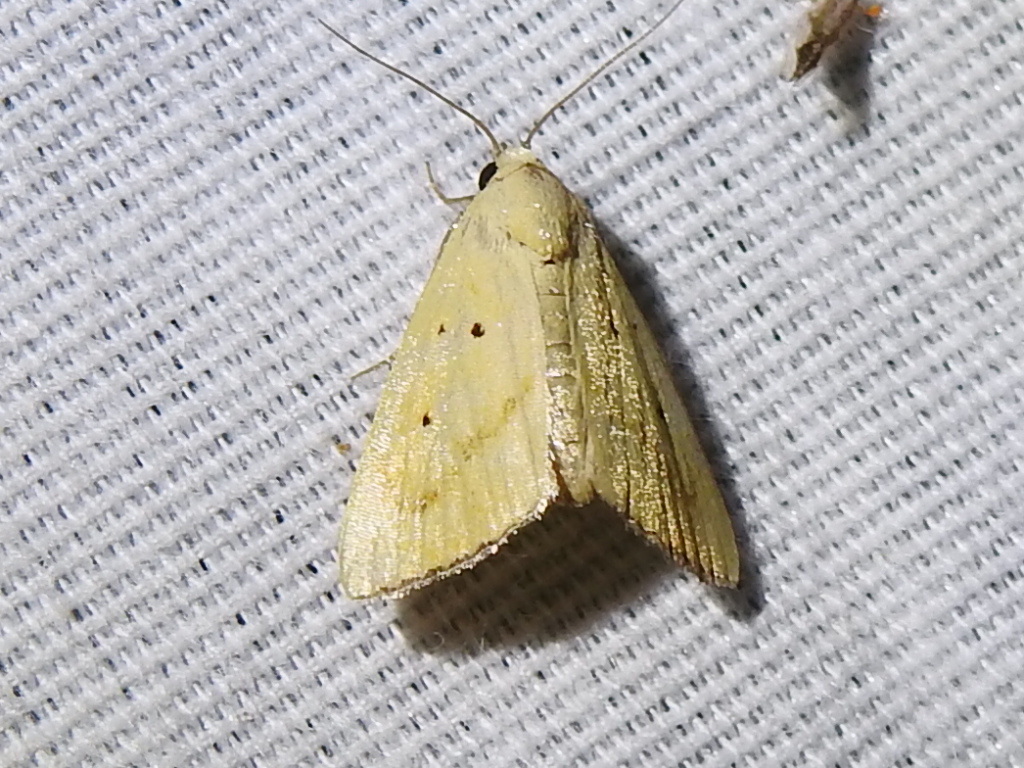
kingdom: Animalia
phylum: Arthropoda
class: Insecta
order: Lepidoptera
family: Noctuidae
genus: Marimatha
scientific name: Marimatha nigrofimbria
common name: Black-bordered lemon moth
